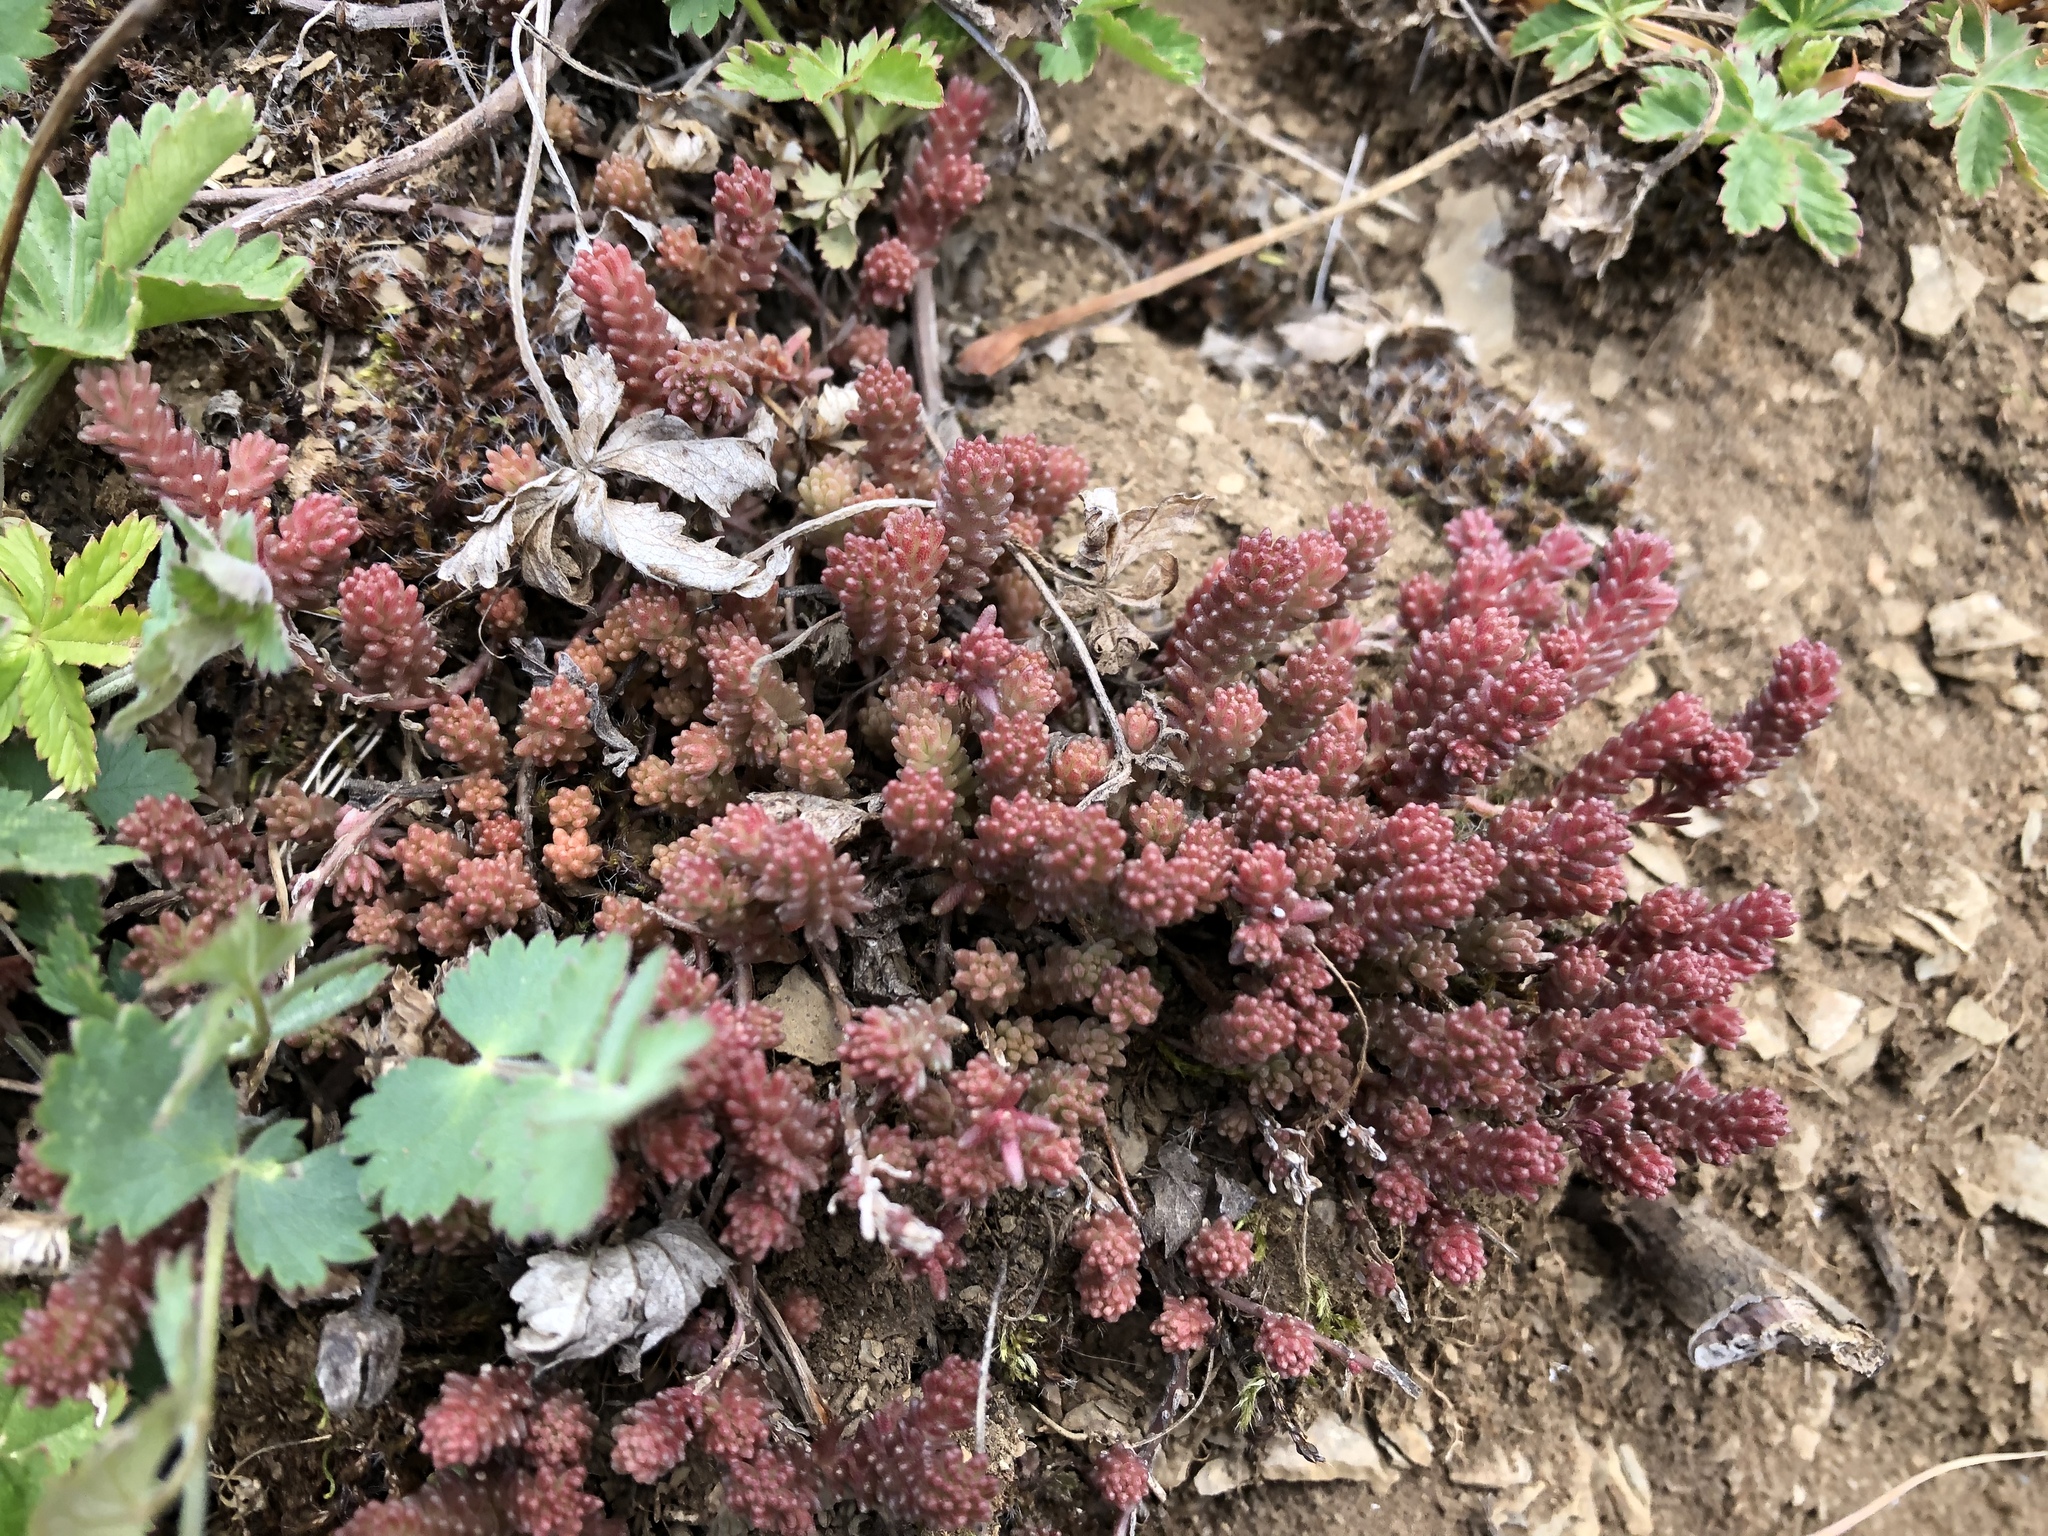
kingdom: Plantae
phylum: Tracheophyta
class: Magnoliopsida
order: Saxifragales
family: Crassulaceae
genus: Sedum
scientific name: Sedum sexangulare
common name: Tasteless stonecrop
